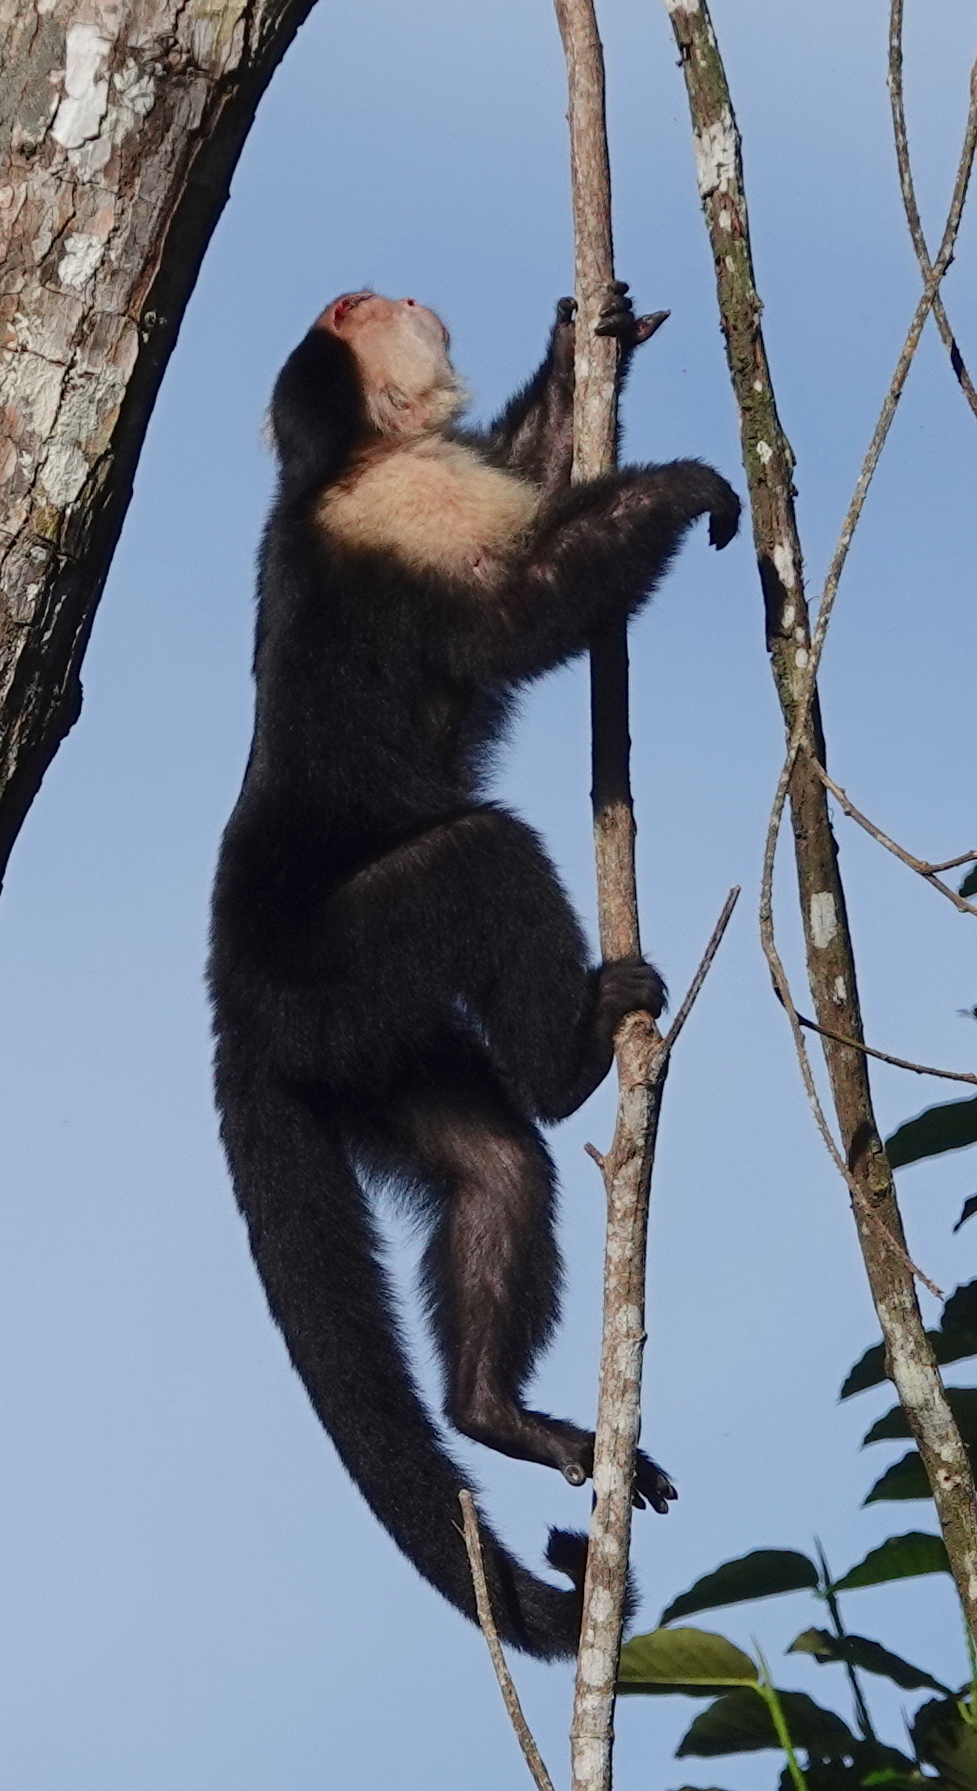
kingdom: Animalia
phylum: Chordata
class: Mammalia
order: Primates
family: Cebidae
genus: Cebus
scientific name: Cebus imitator
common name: Panamanian white-faced capuchin
